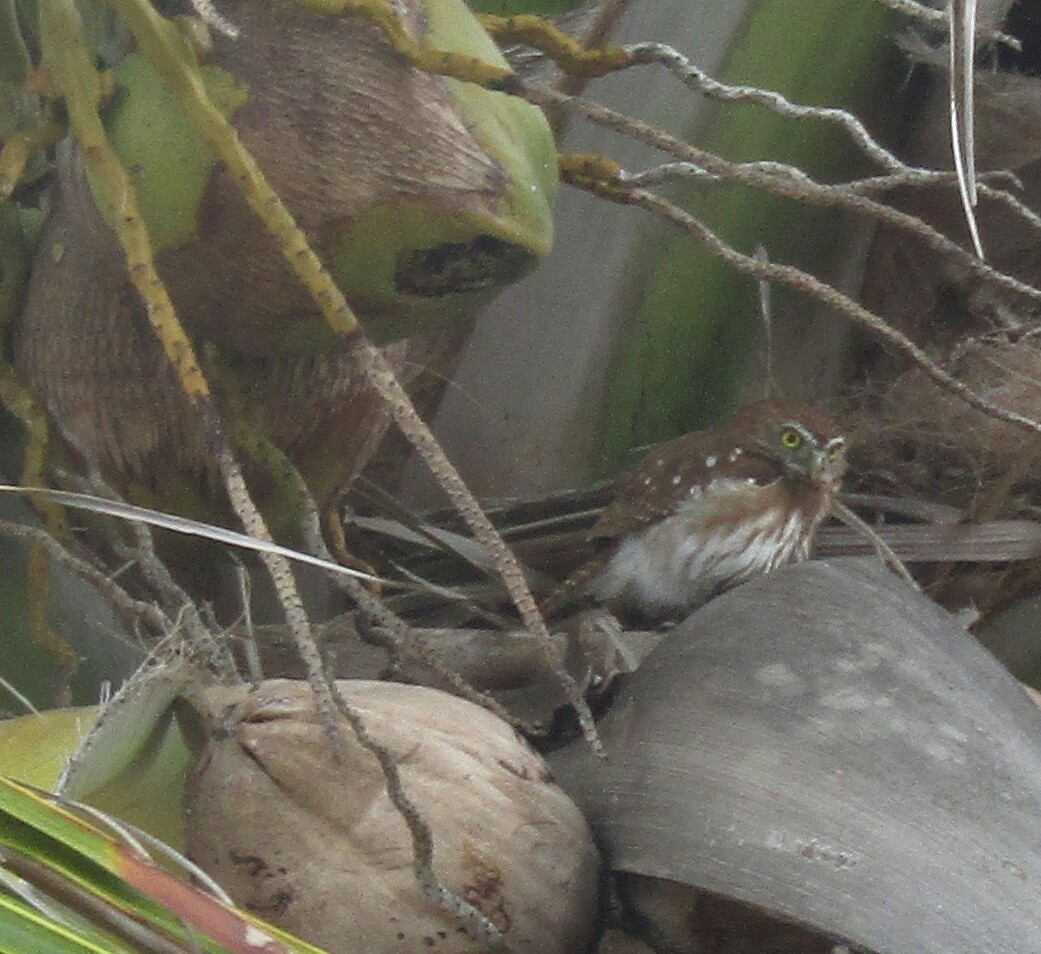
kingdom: Animalia
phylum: Chordata
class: Aves
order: Strigiformes
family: Strigidae
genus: Glaucidium
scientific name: Glaucidium brasilianum
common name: Ferruginous pygmy-owl
